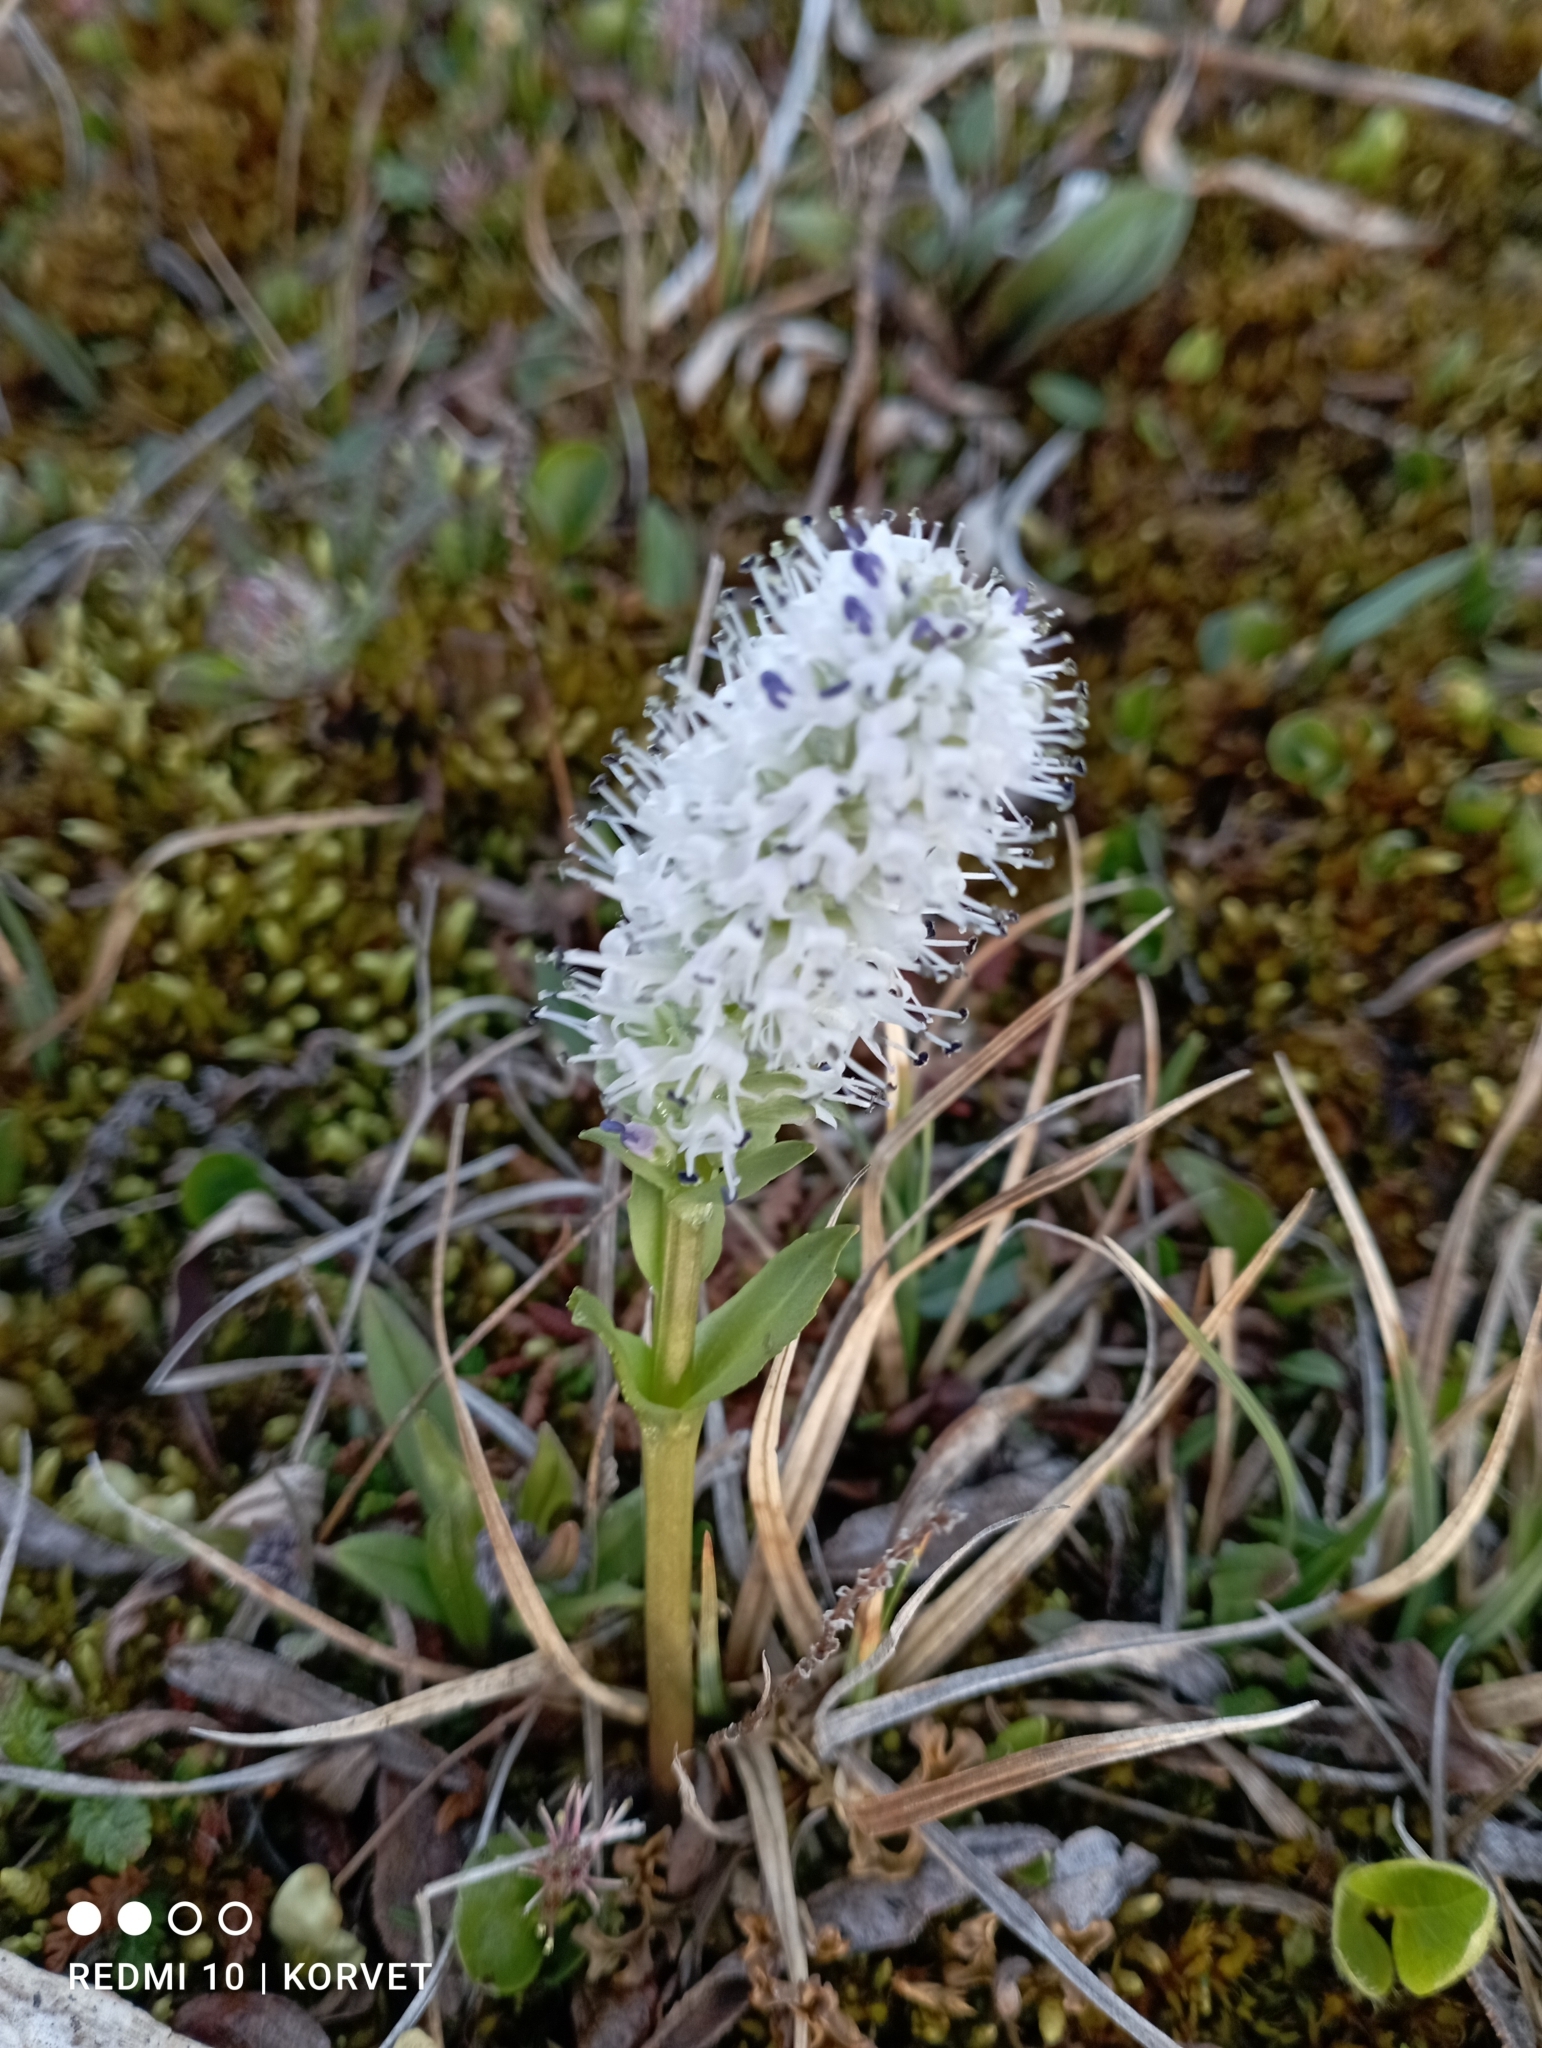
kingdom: Plantae
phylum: Tracheophyta
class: Magnoliopsida
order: Lamiales
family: Plantaginaceae
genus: Lagotis
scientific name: Lagotis glauca
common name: Glaucous weaselsnout
